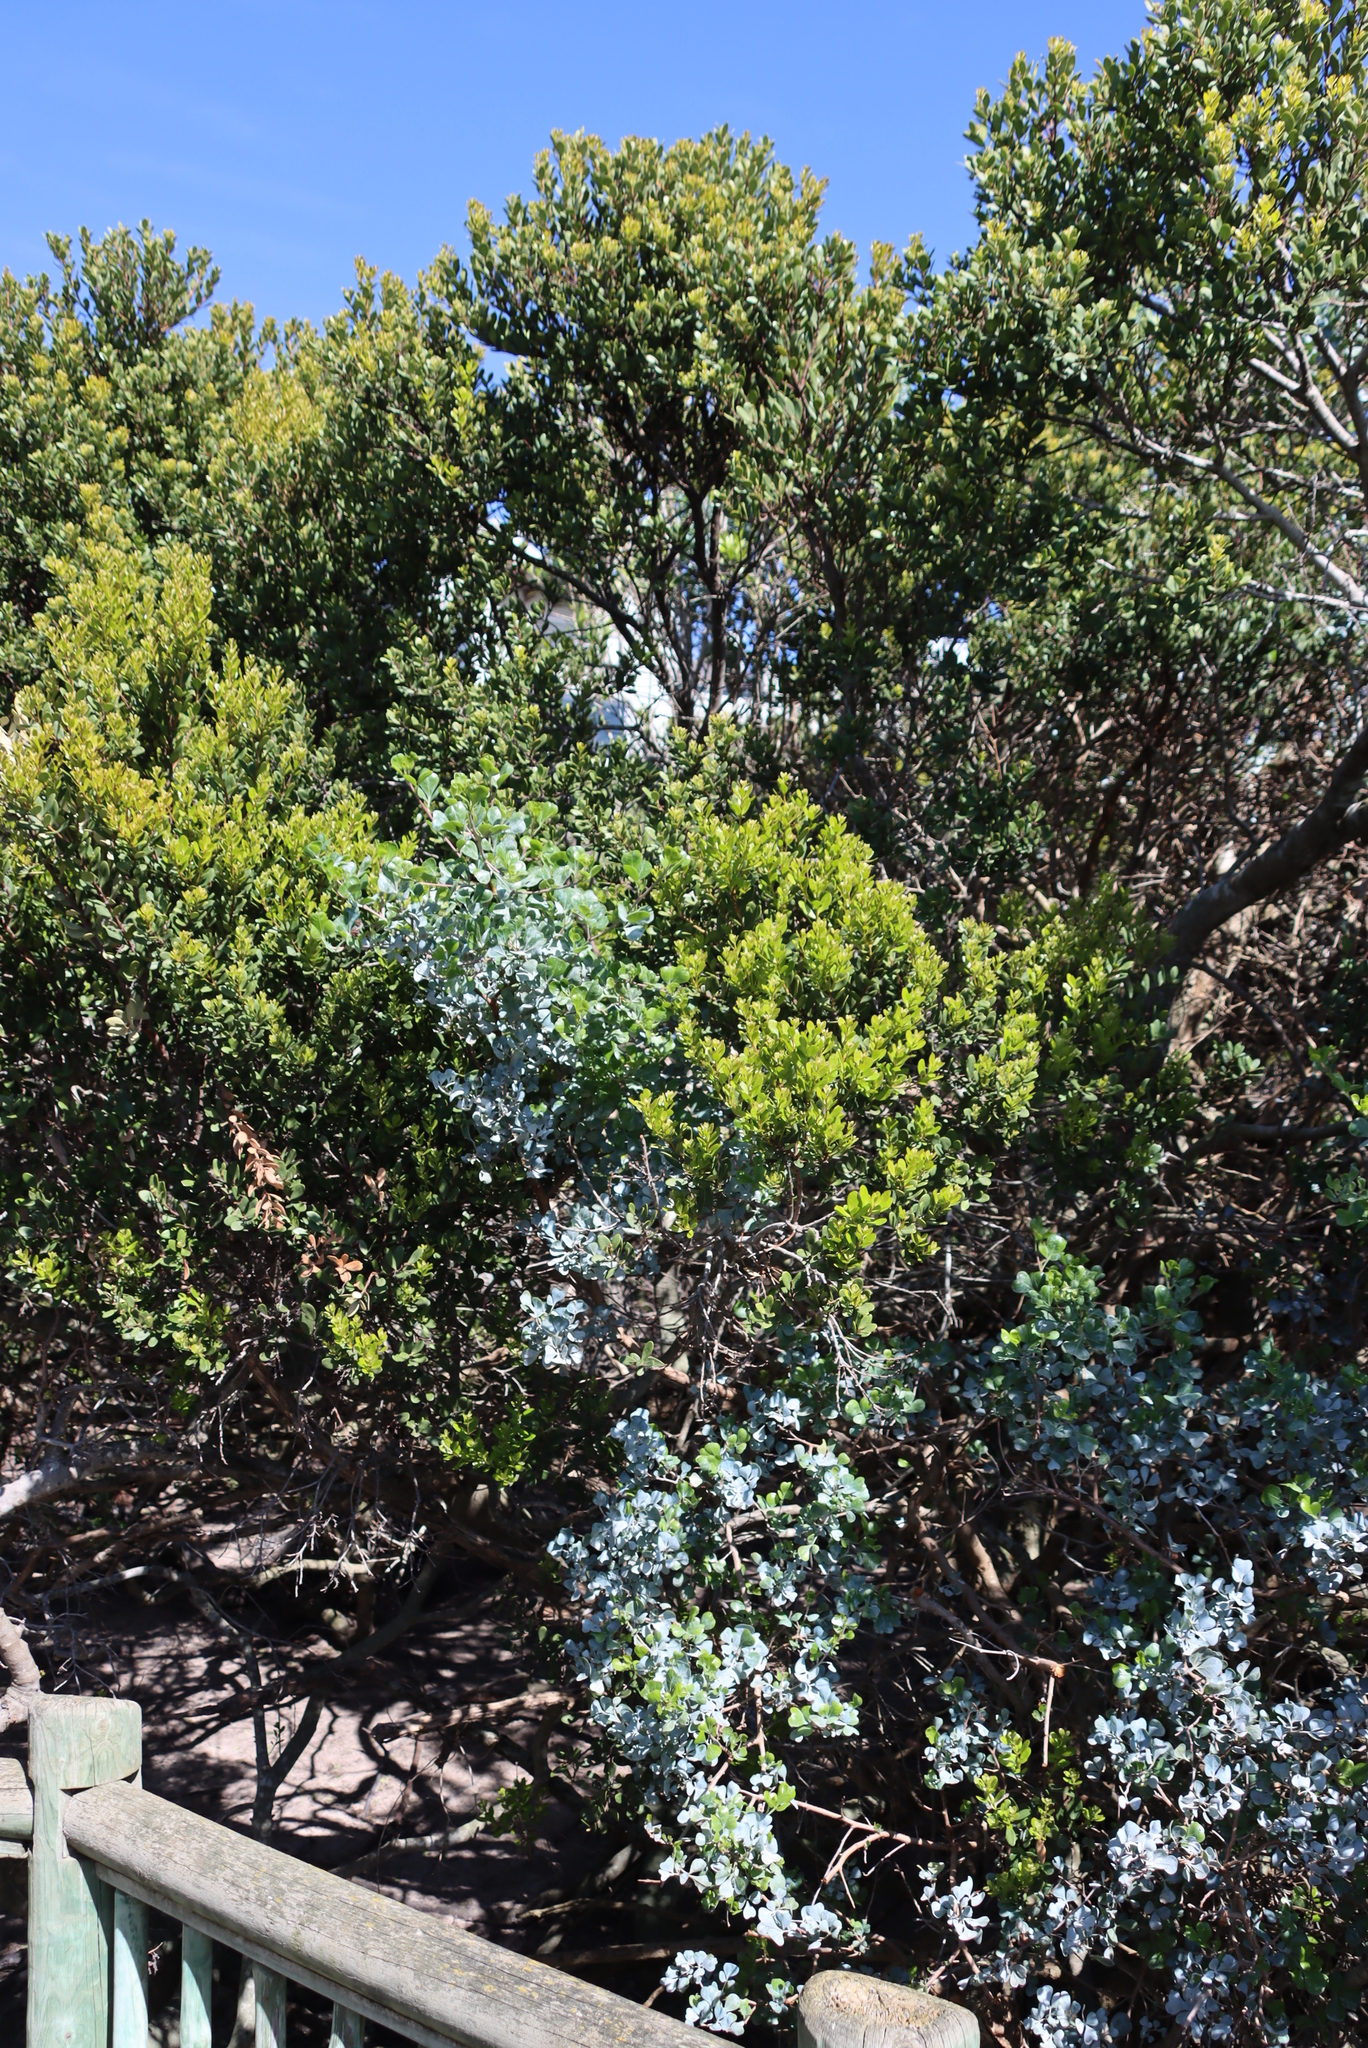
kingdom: Plantae
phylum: Tracheophyta
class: Magnoliopsida
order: Sapindales
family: Anacardiaceae
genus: Searsia
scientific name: Searsia glauca
